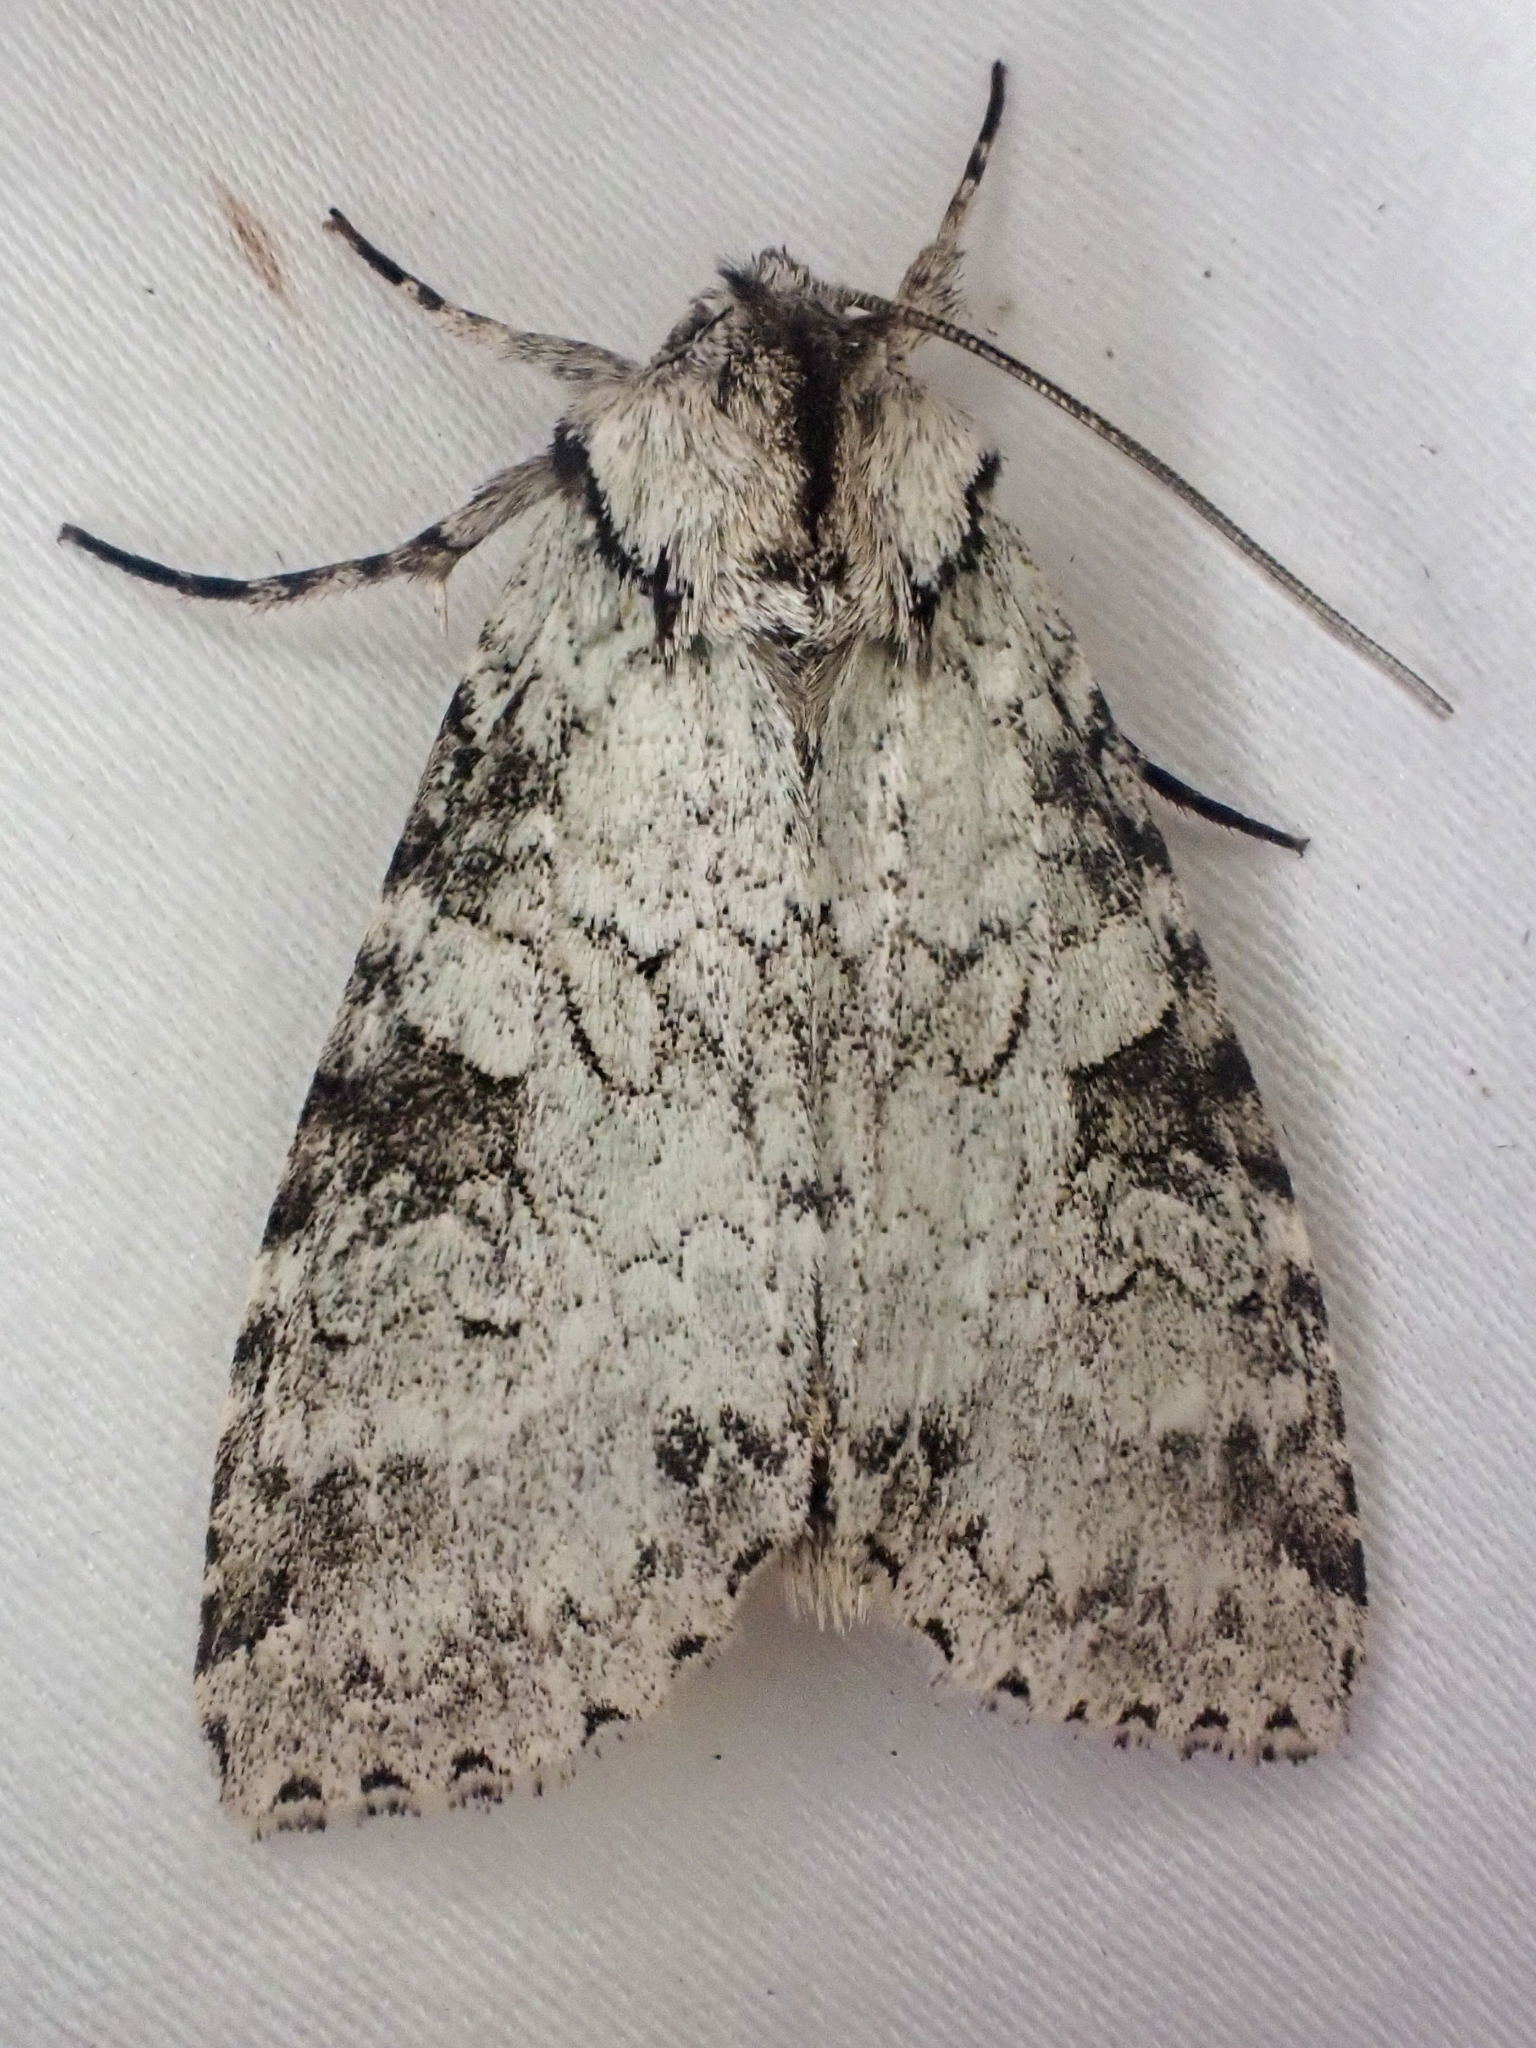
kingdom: Animalia
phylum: Arthropoda
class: Insecta
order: Lepidoptera
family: Noctuidae
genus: Polia
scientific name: Polia nimbosa
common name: Stormy arches
